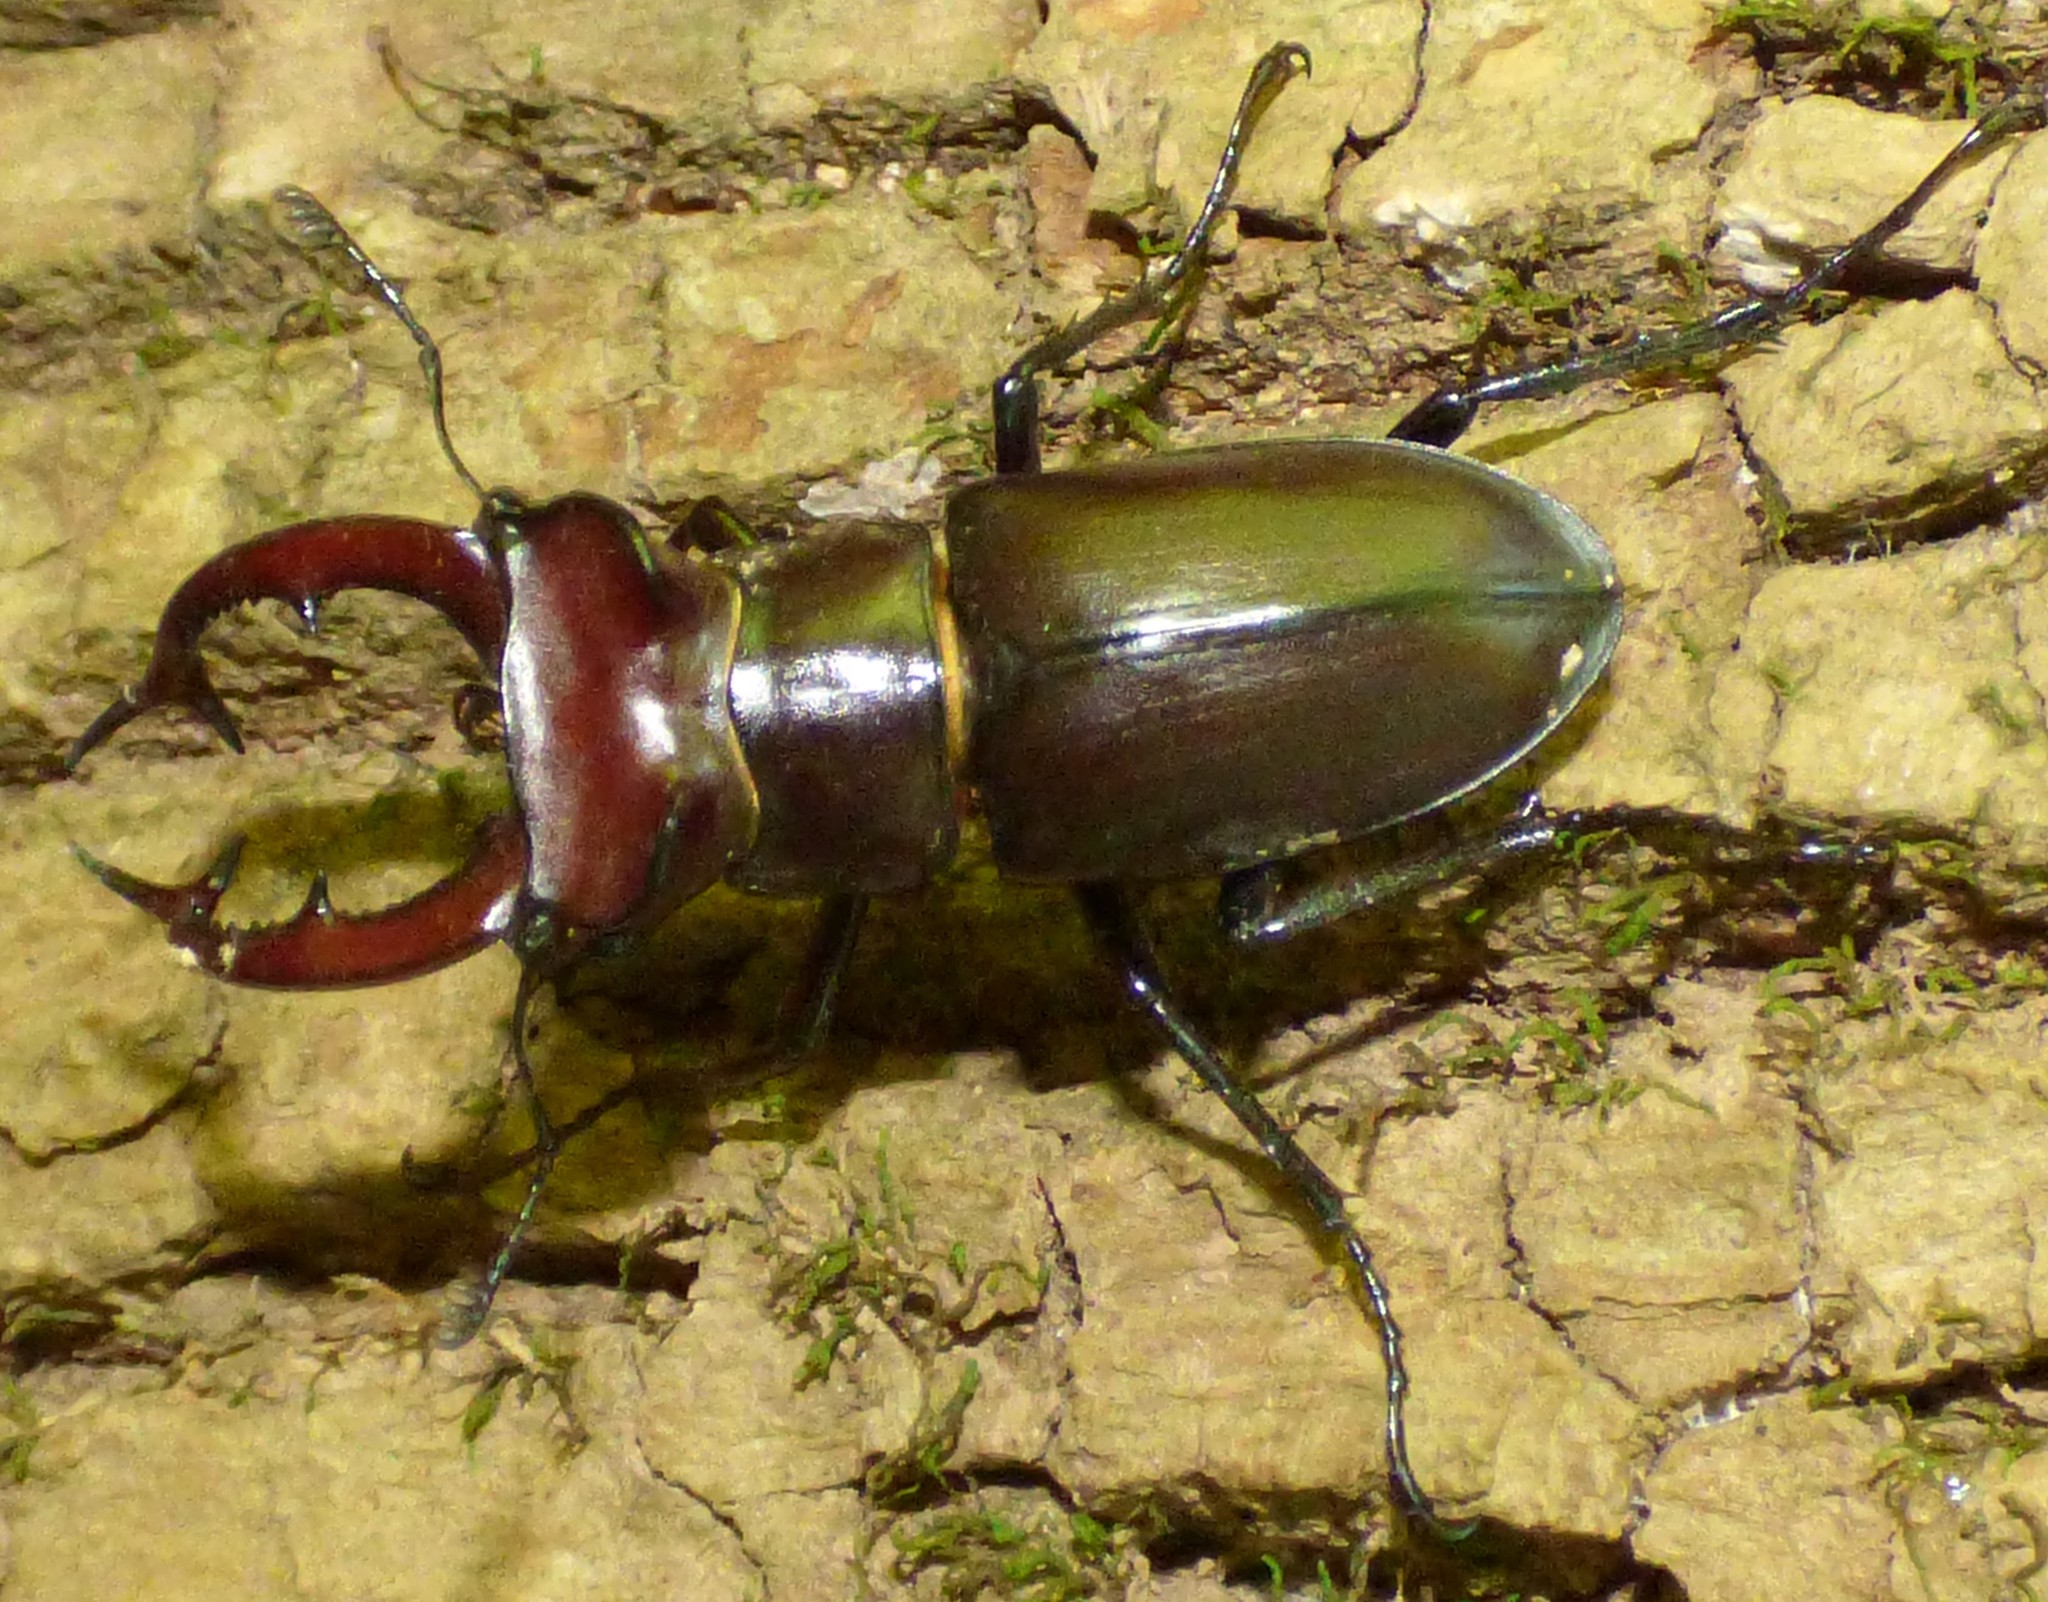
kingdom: Animalia
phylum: Arthropoda
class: Insecta
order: Coleoptera
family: Lucanidae
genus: Lucanus
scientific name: Lucanus elaphus
